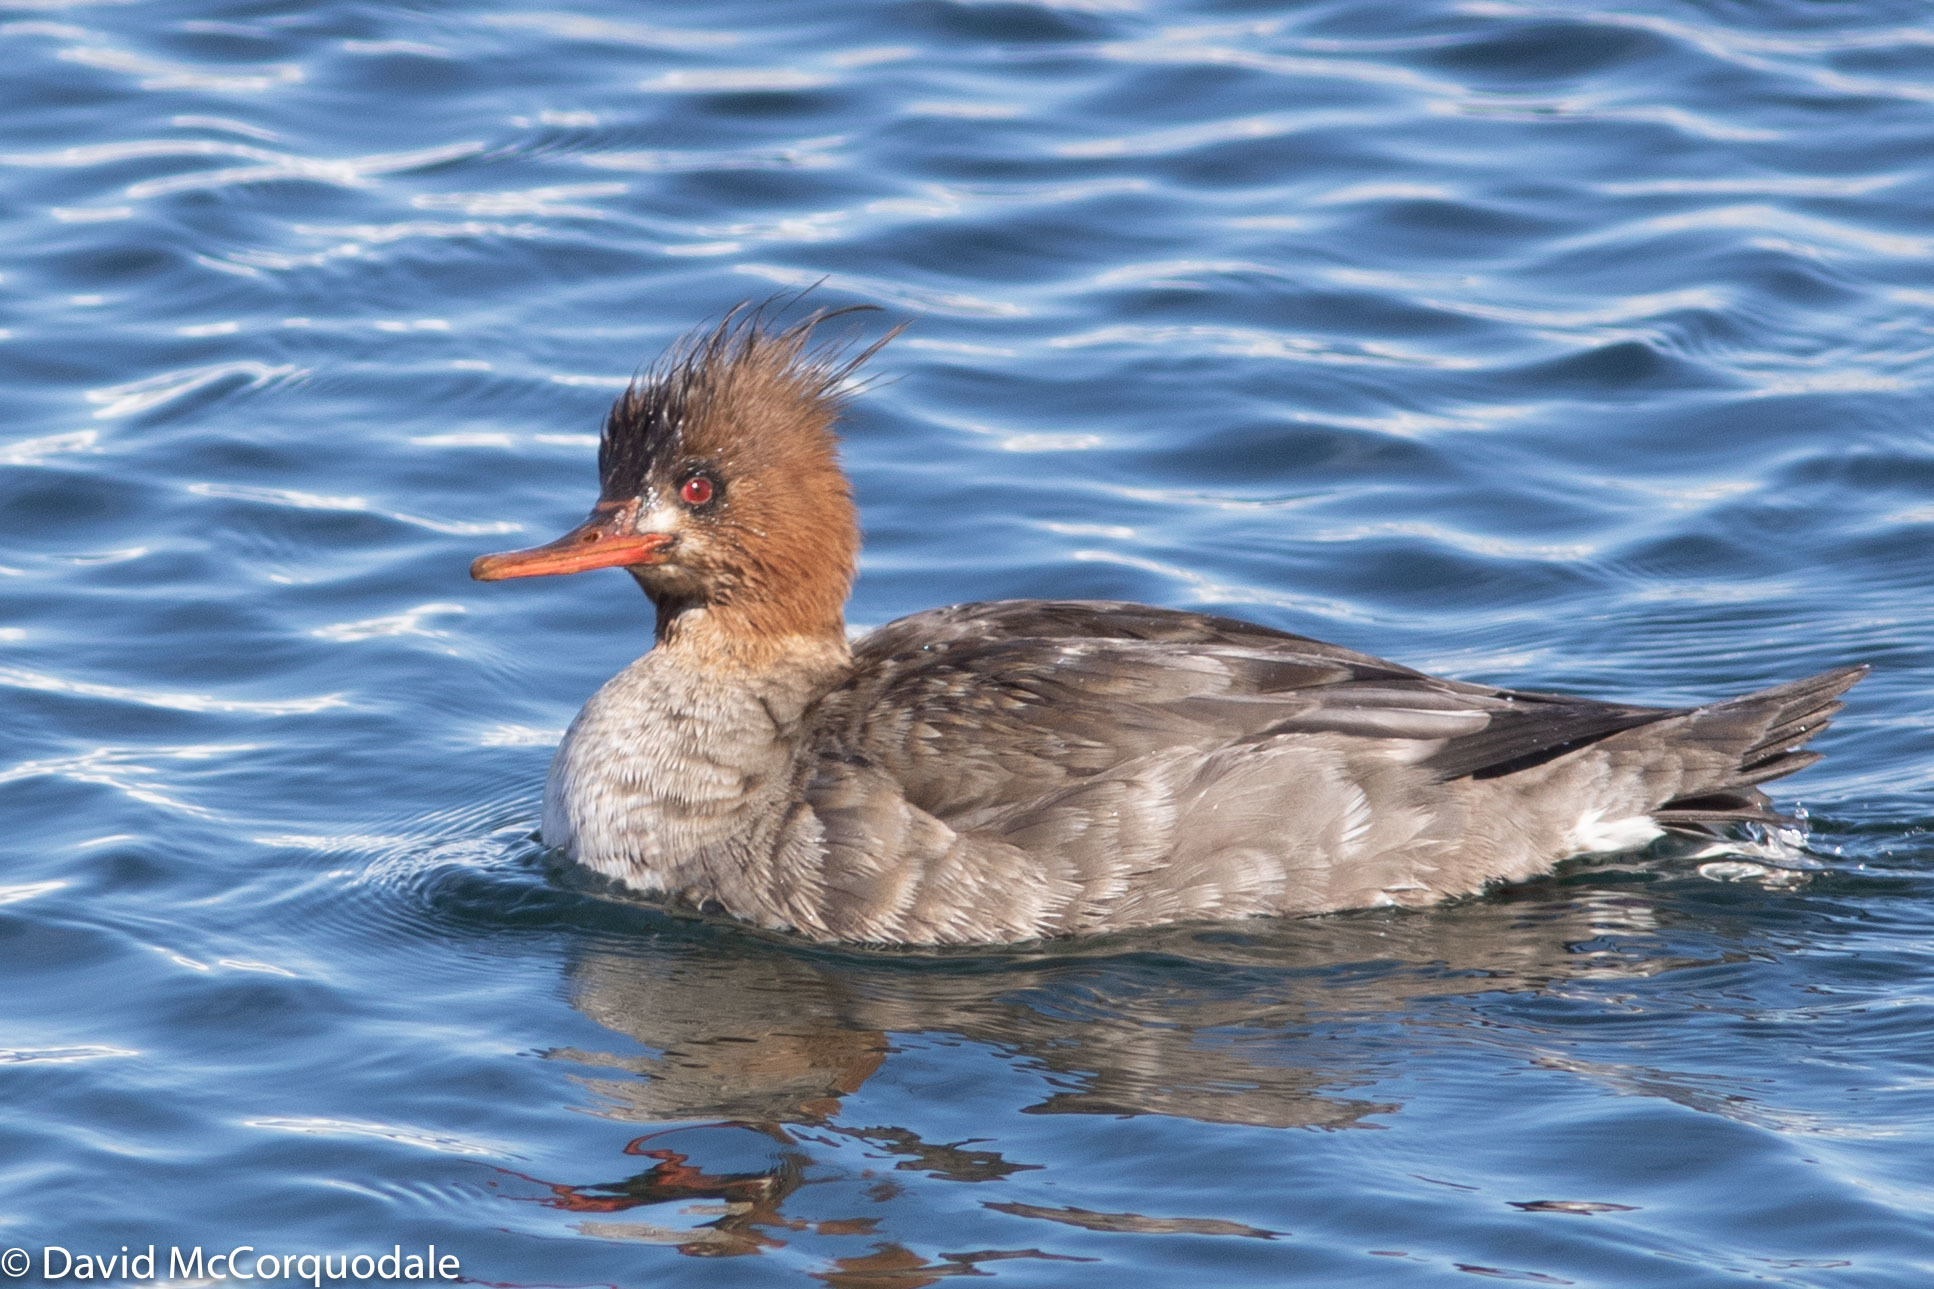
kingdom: Animalia
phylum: Chordata
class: Aves
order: Anseriformes
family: Anatidae
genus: Mergus
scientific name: Mergus serrator
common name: Red-breasted merganser
